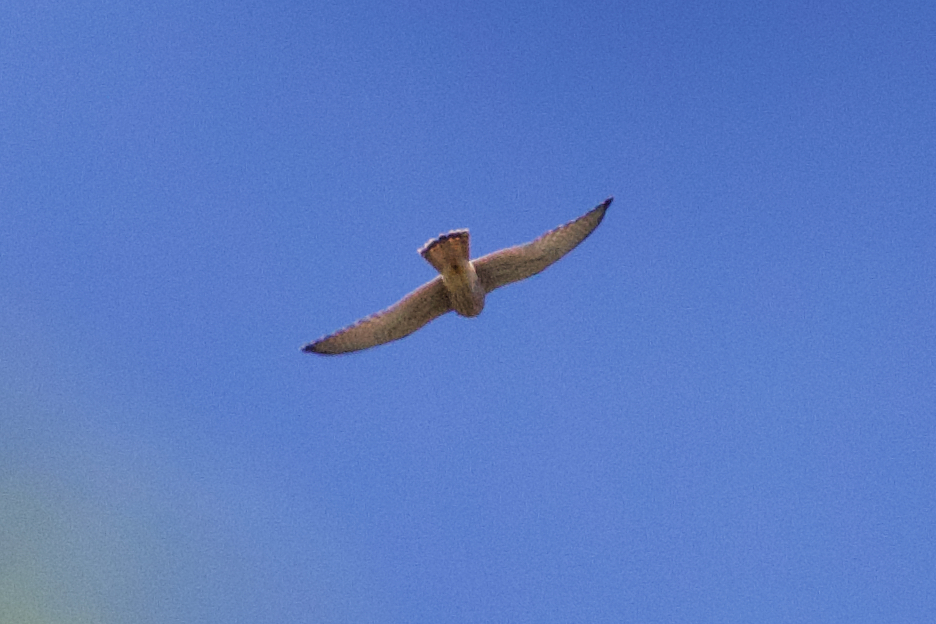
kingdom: Animalia
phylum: Chordata
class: Aves
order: Falconiformes
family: Falconidae
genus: Falco
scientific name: Falco tinnunculus
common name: Common kestrel
